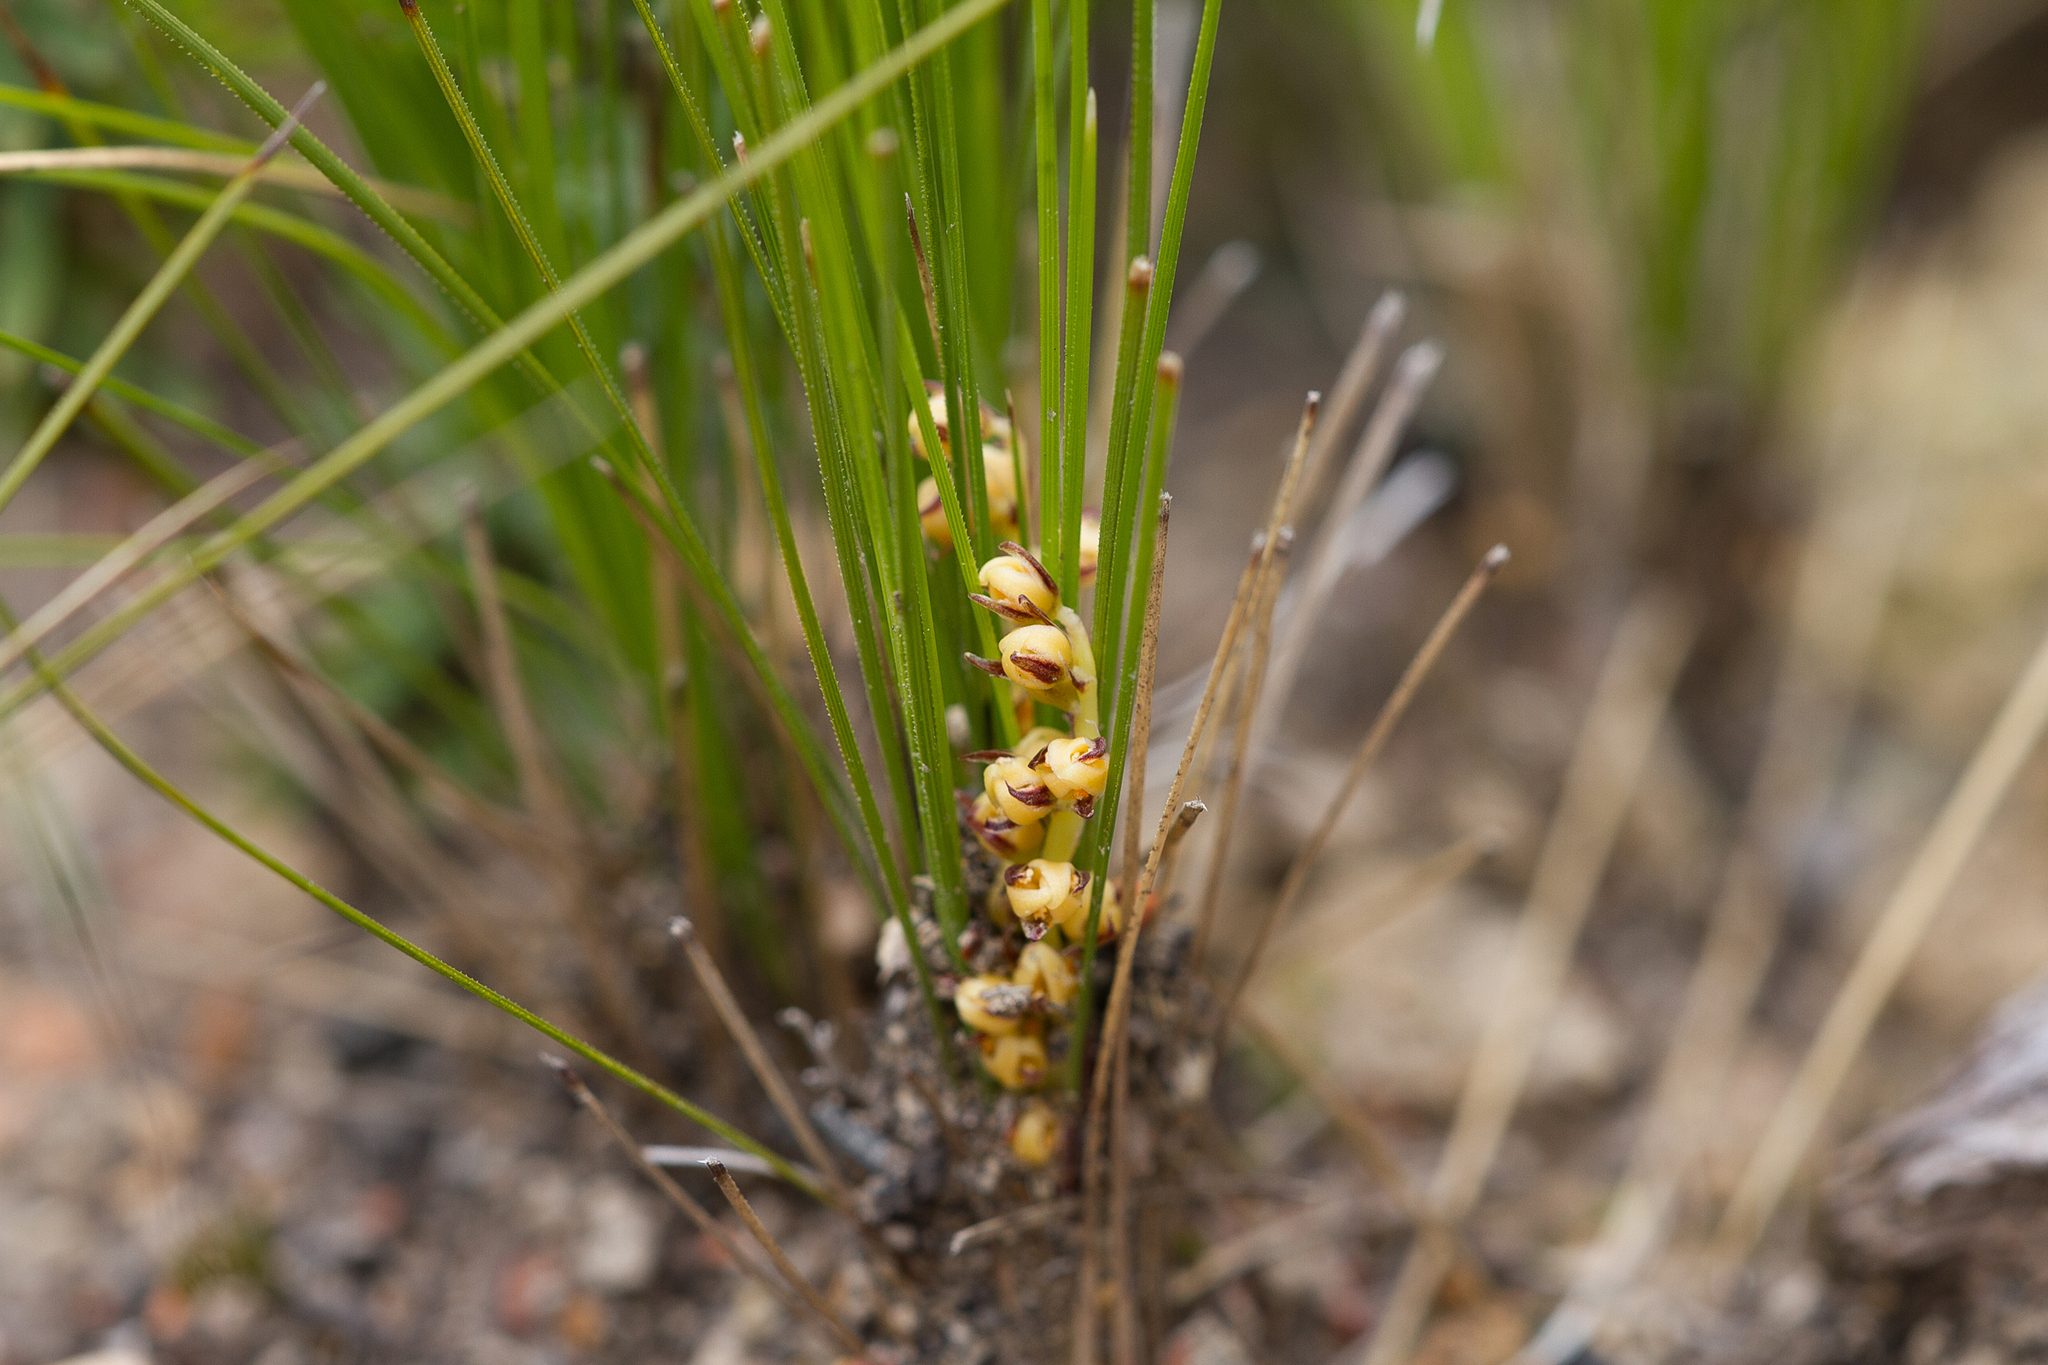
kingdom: Plantae
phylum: Tracheophyta
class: Liliopsida
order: Asparagales
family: Asparagaceae
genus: Lomandra
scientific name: Lomandra fibrata
